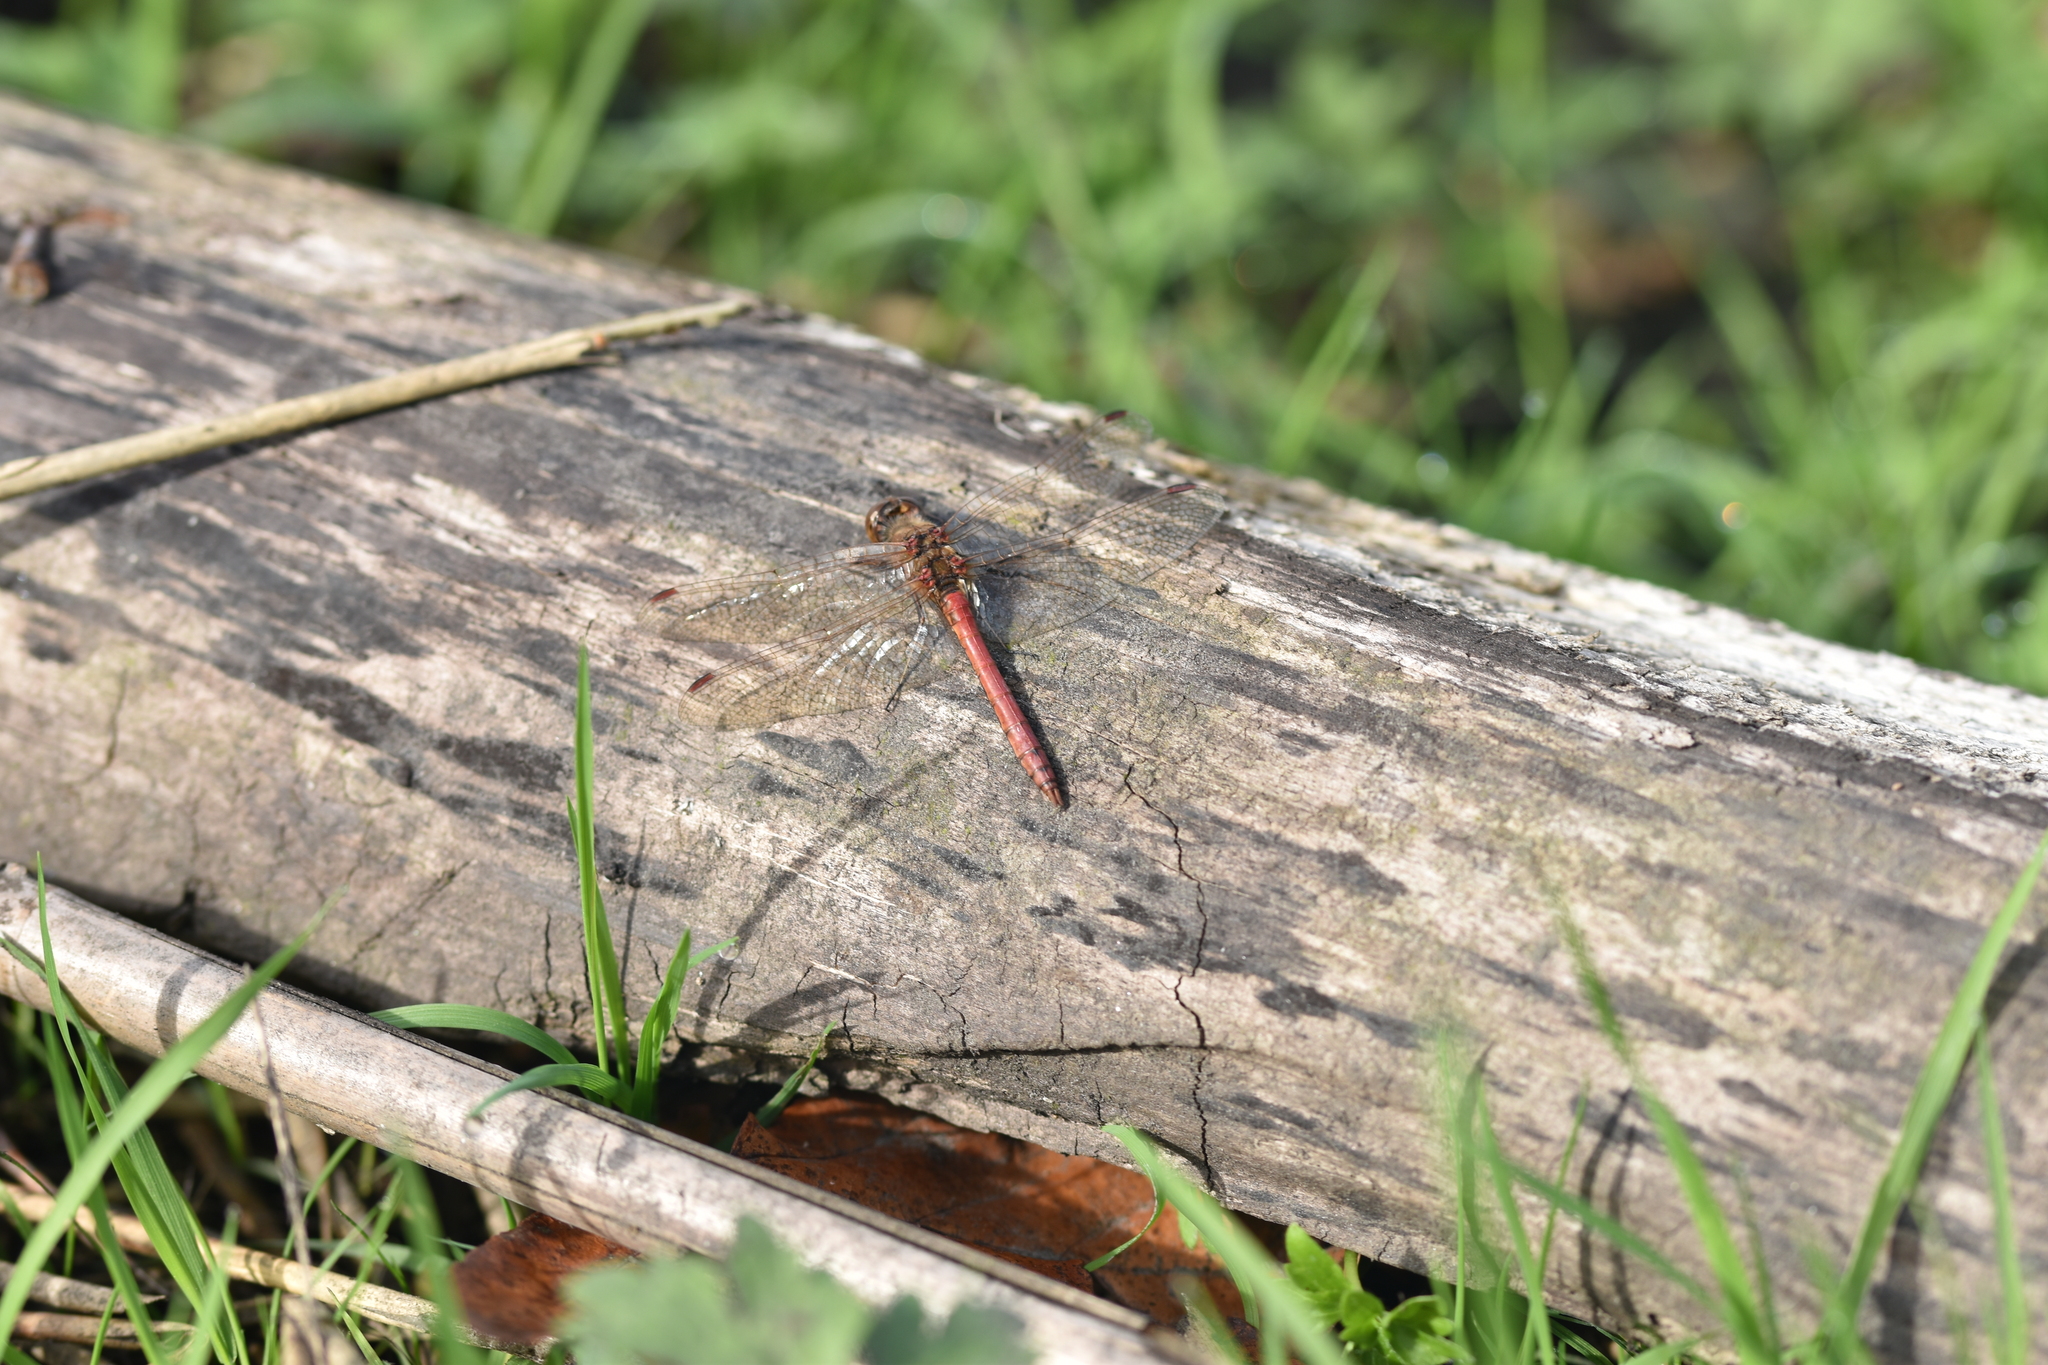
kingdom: Animalia
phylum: Arthropoda
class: Insecta
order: Odonata
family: Libellulidae
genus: Sympetrum
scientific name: Sympetrum vulgatum
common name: Vagrant darter
